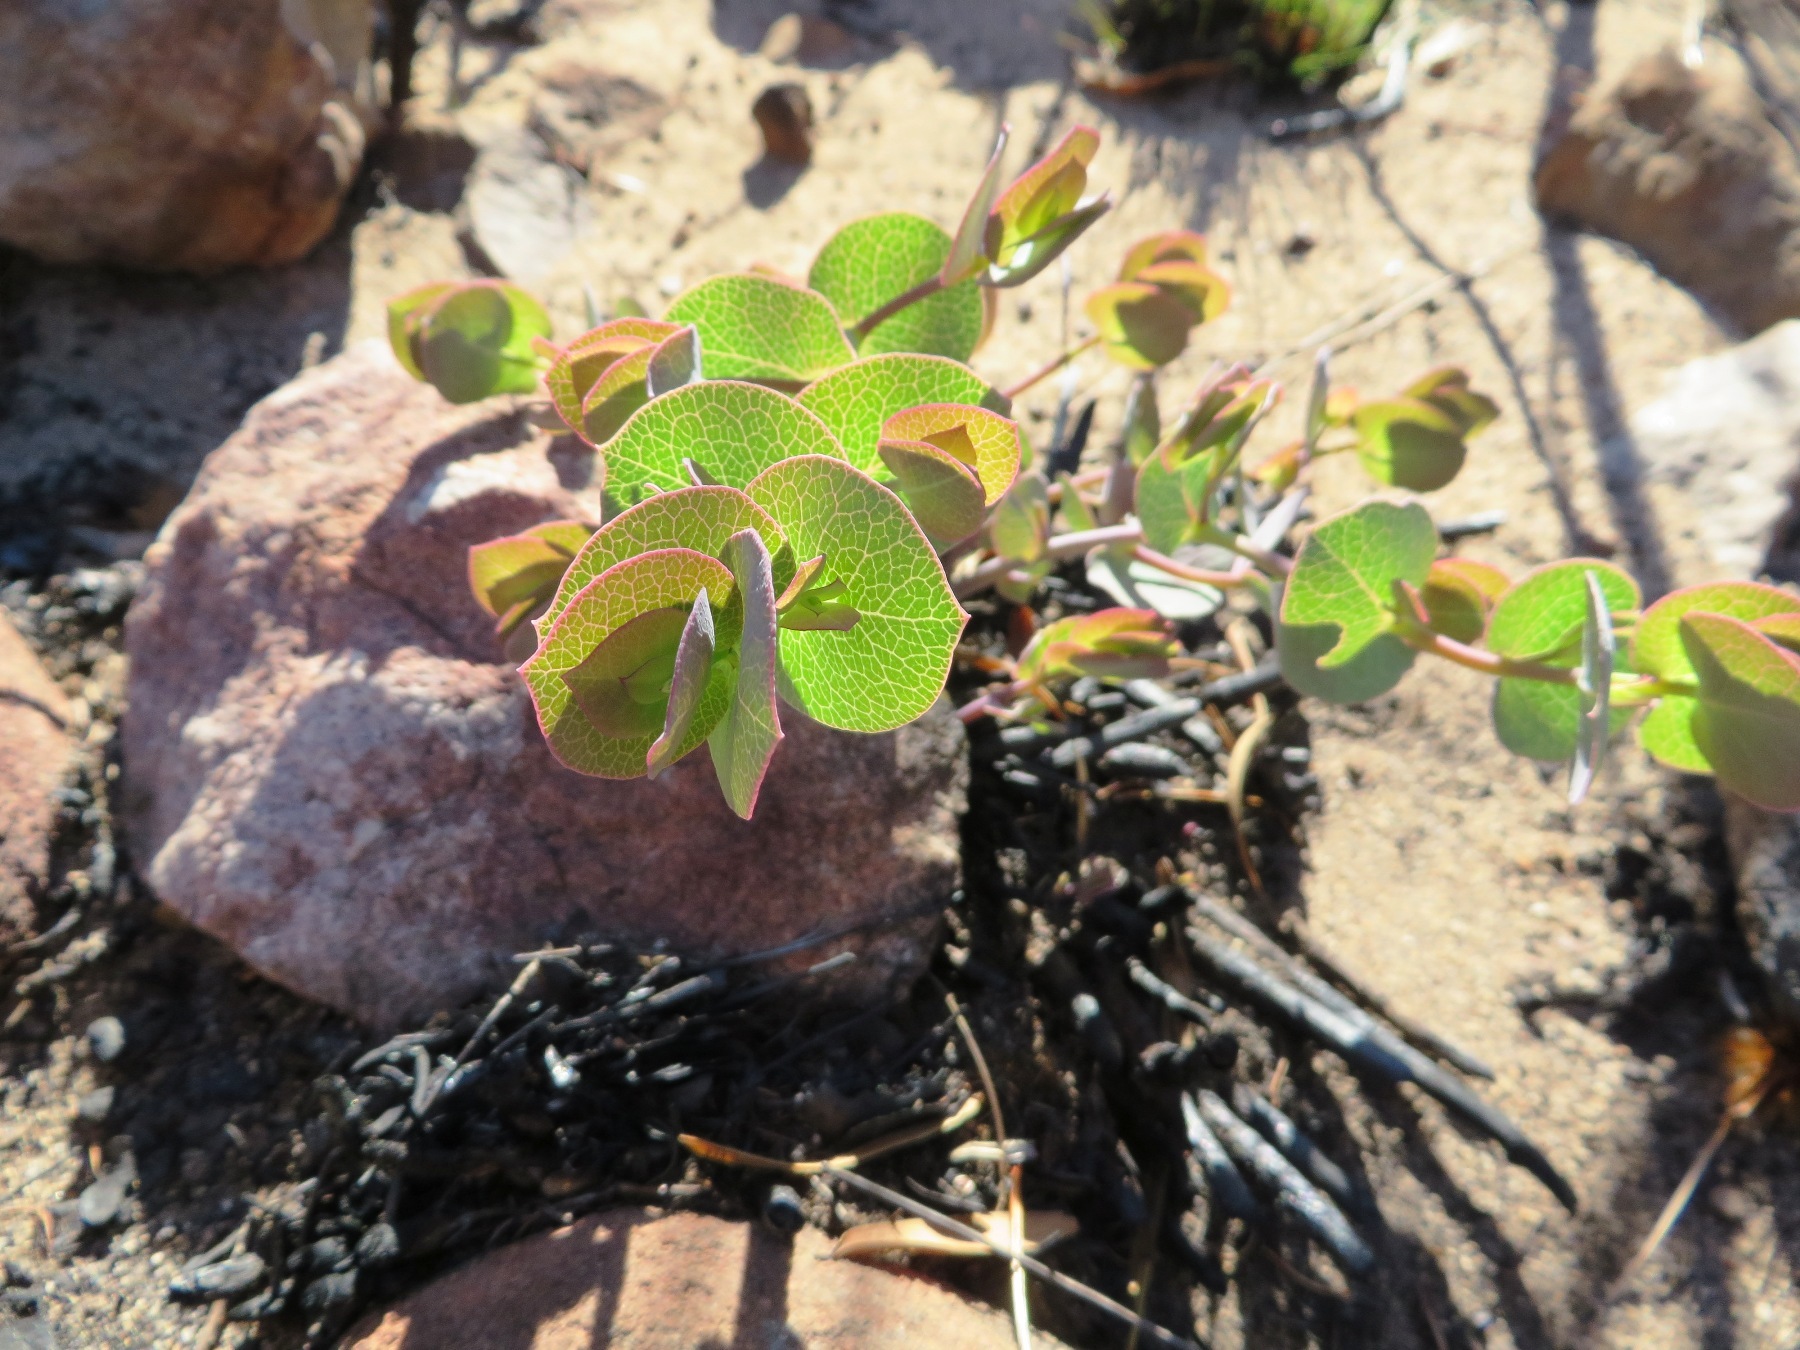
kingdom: Plantae
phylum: Tracheophyta
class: Magnoliopsida
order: Fabales
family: Fabaceae
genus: Rafnia
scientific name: Rafnia acuminata
